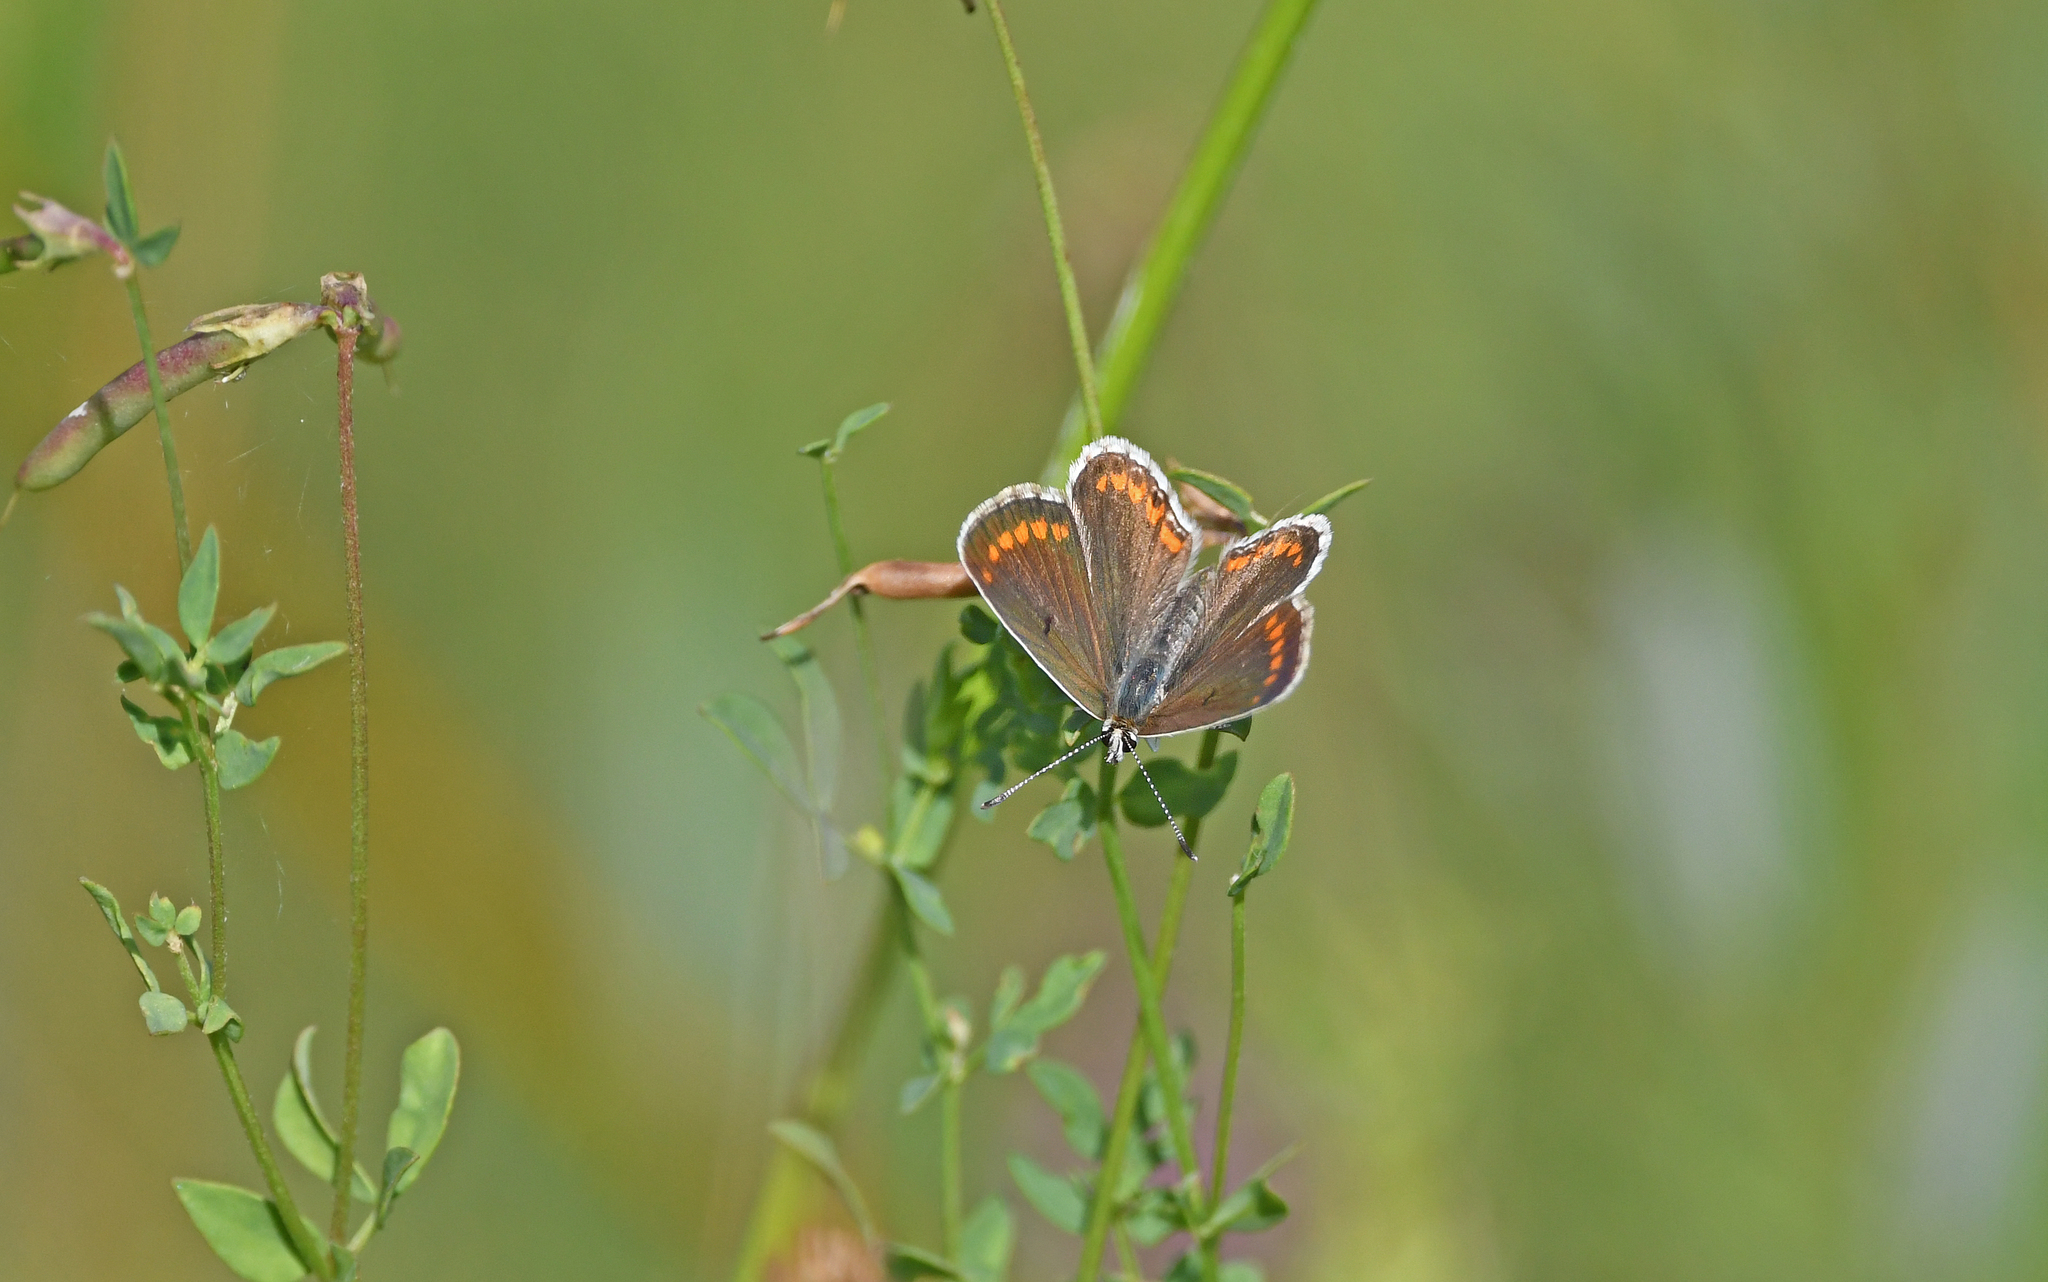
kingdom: Animalia
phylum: Arthropoda
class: Insecta
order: Lepidoptera
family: Lycaenidae
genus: Aricia
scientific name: Aricia agestis
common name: Brown argus
